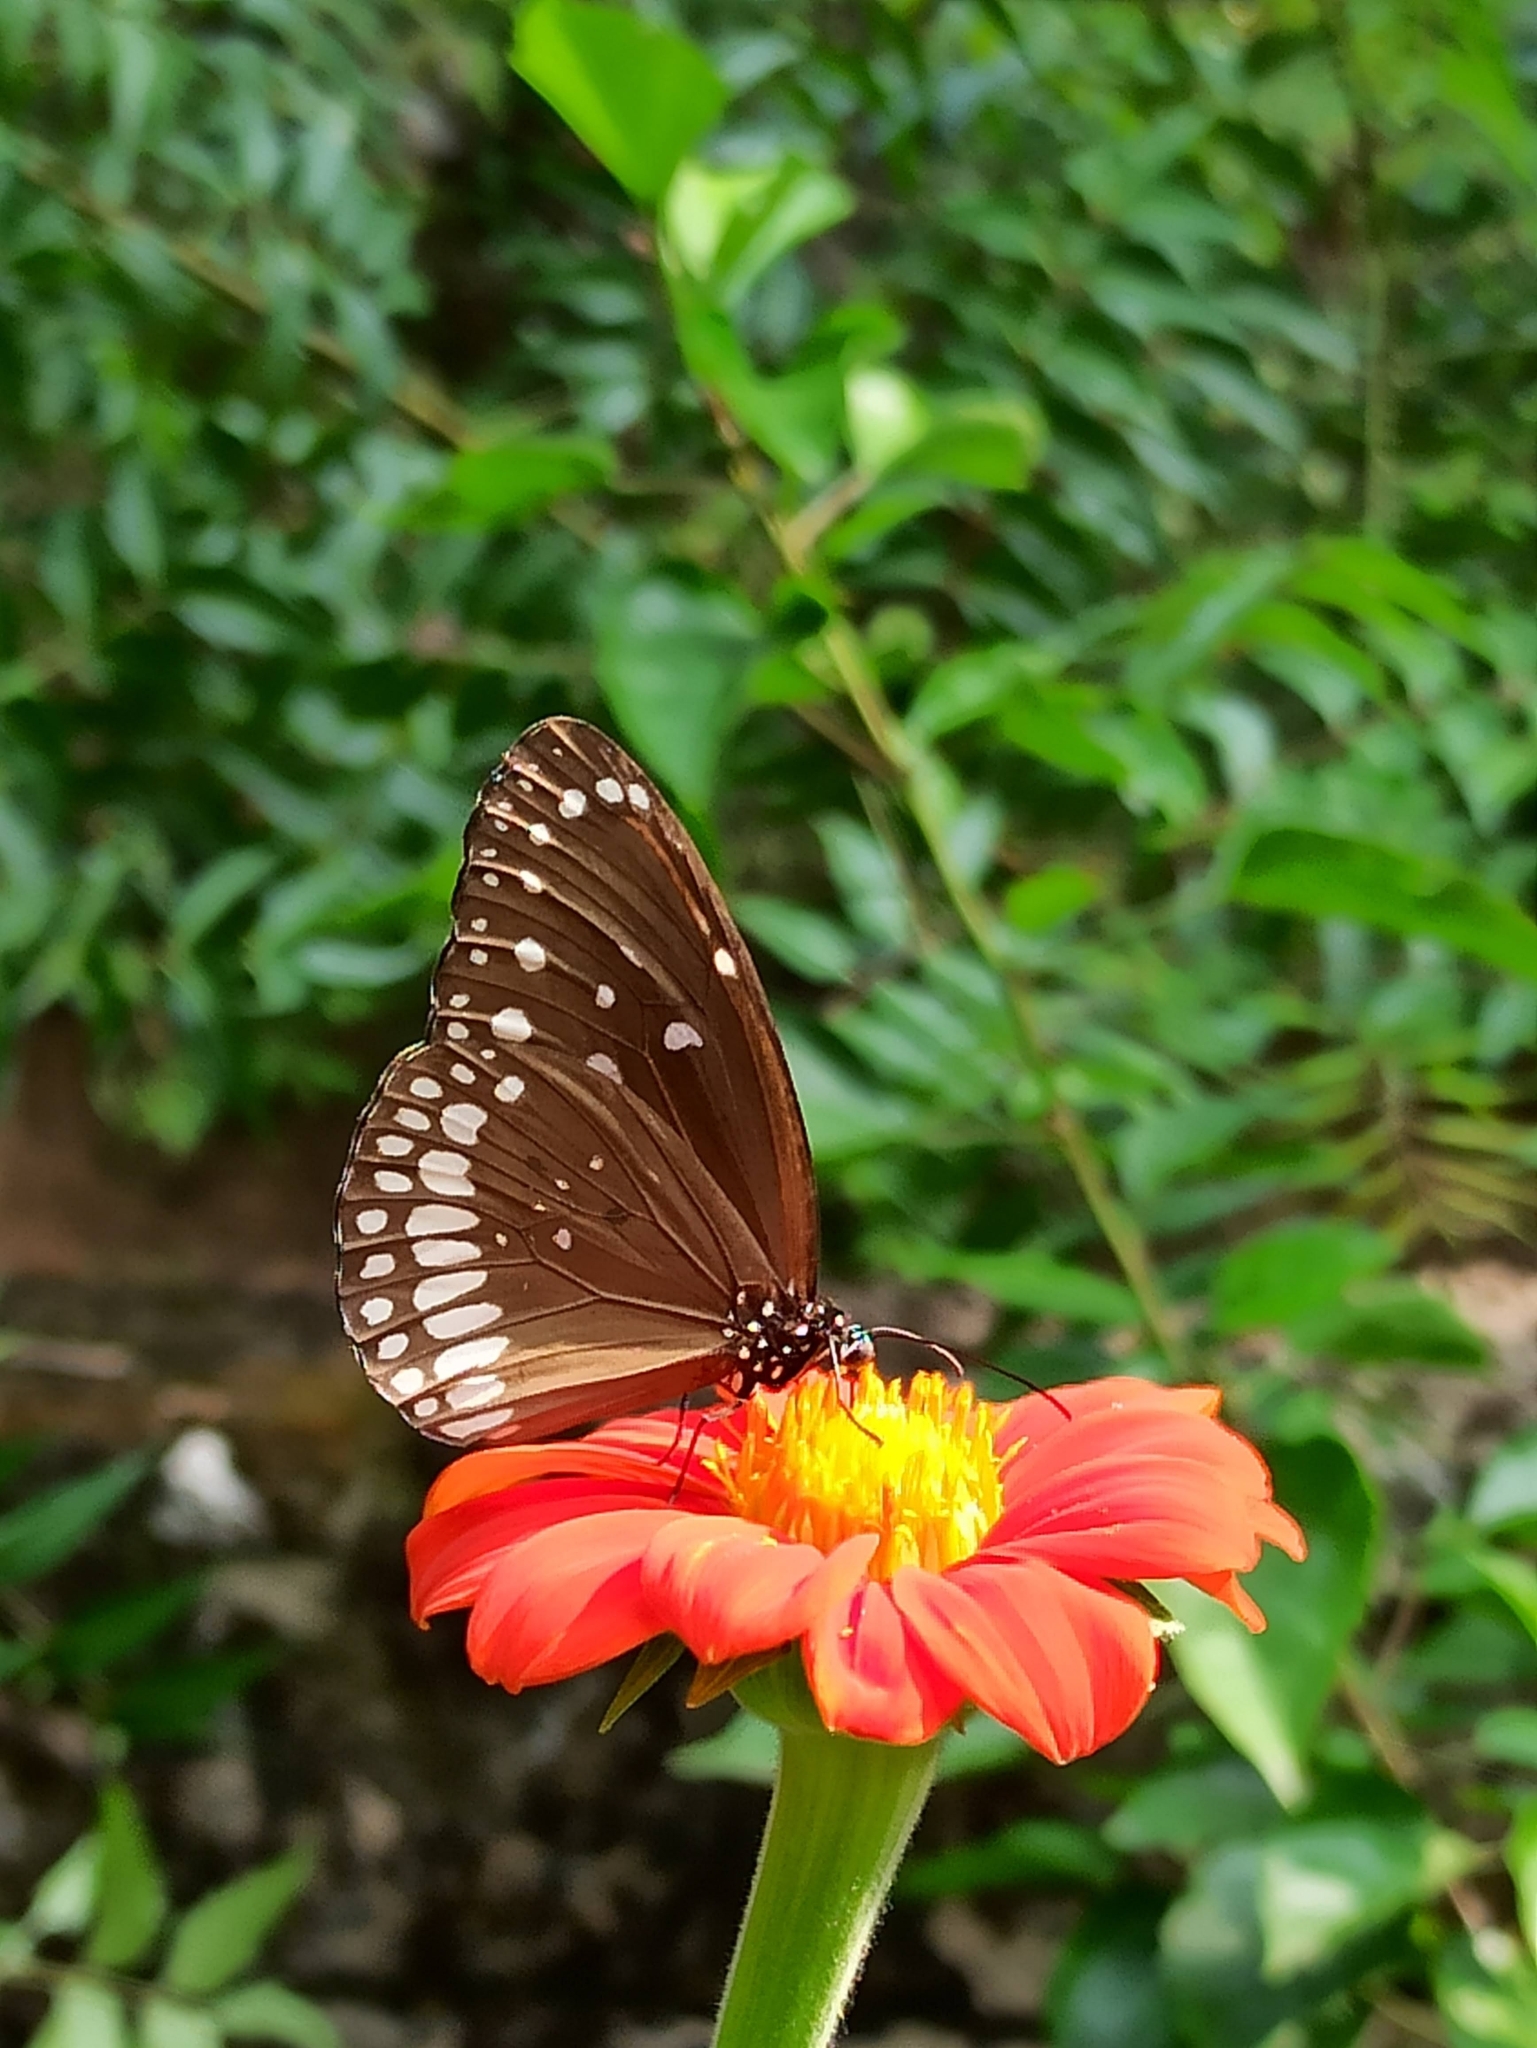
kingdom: Animalia
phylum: Arthropoda
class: Insecta
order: Lepidoptera
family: Nymphalidae
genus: Euploea
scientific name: Euploea core
